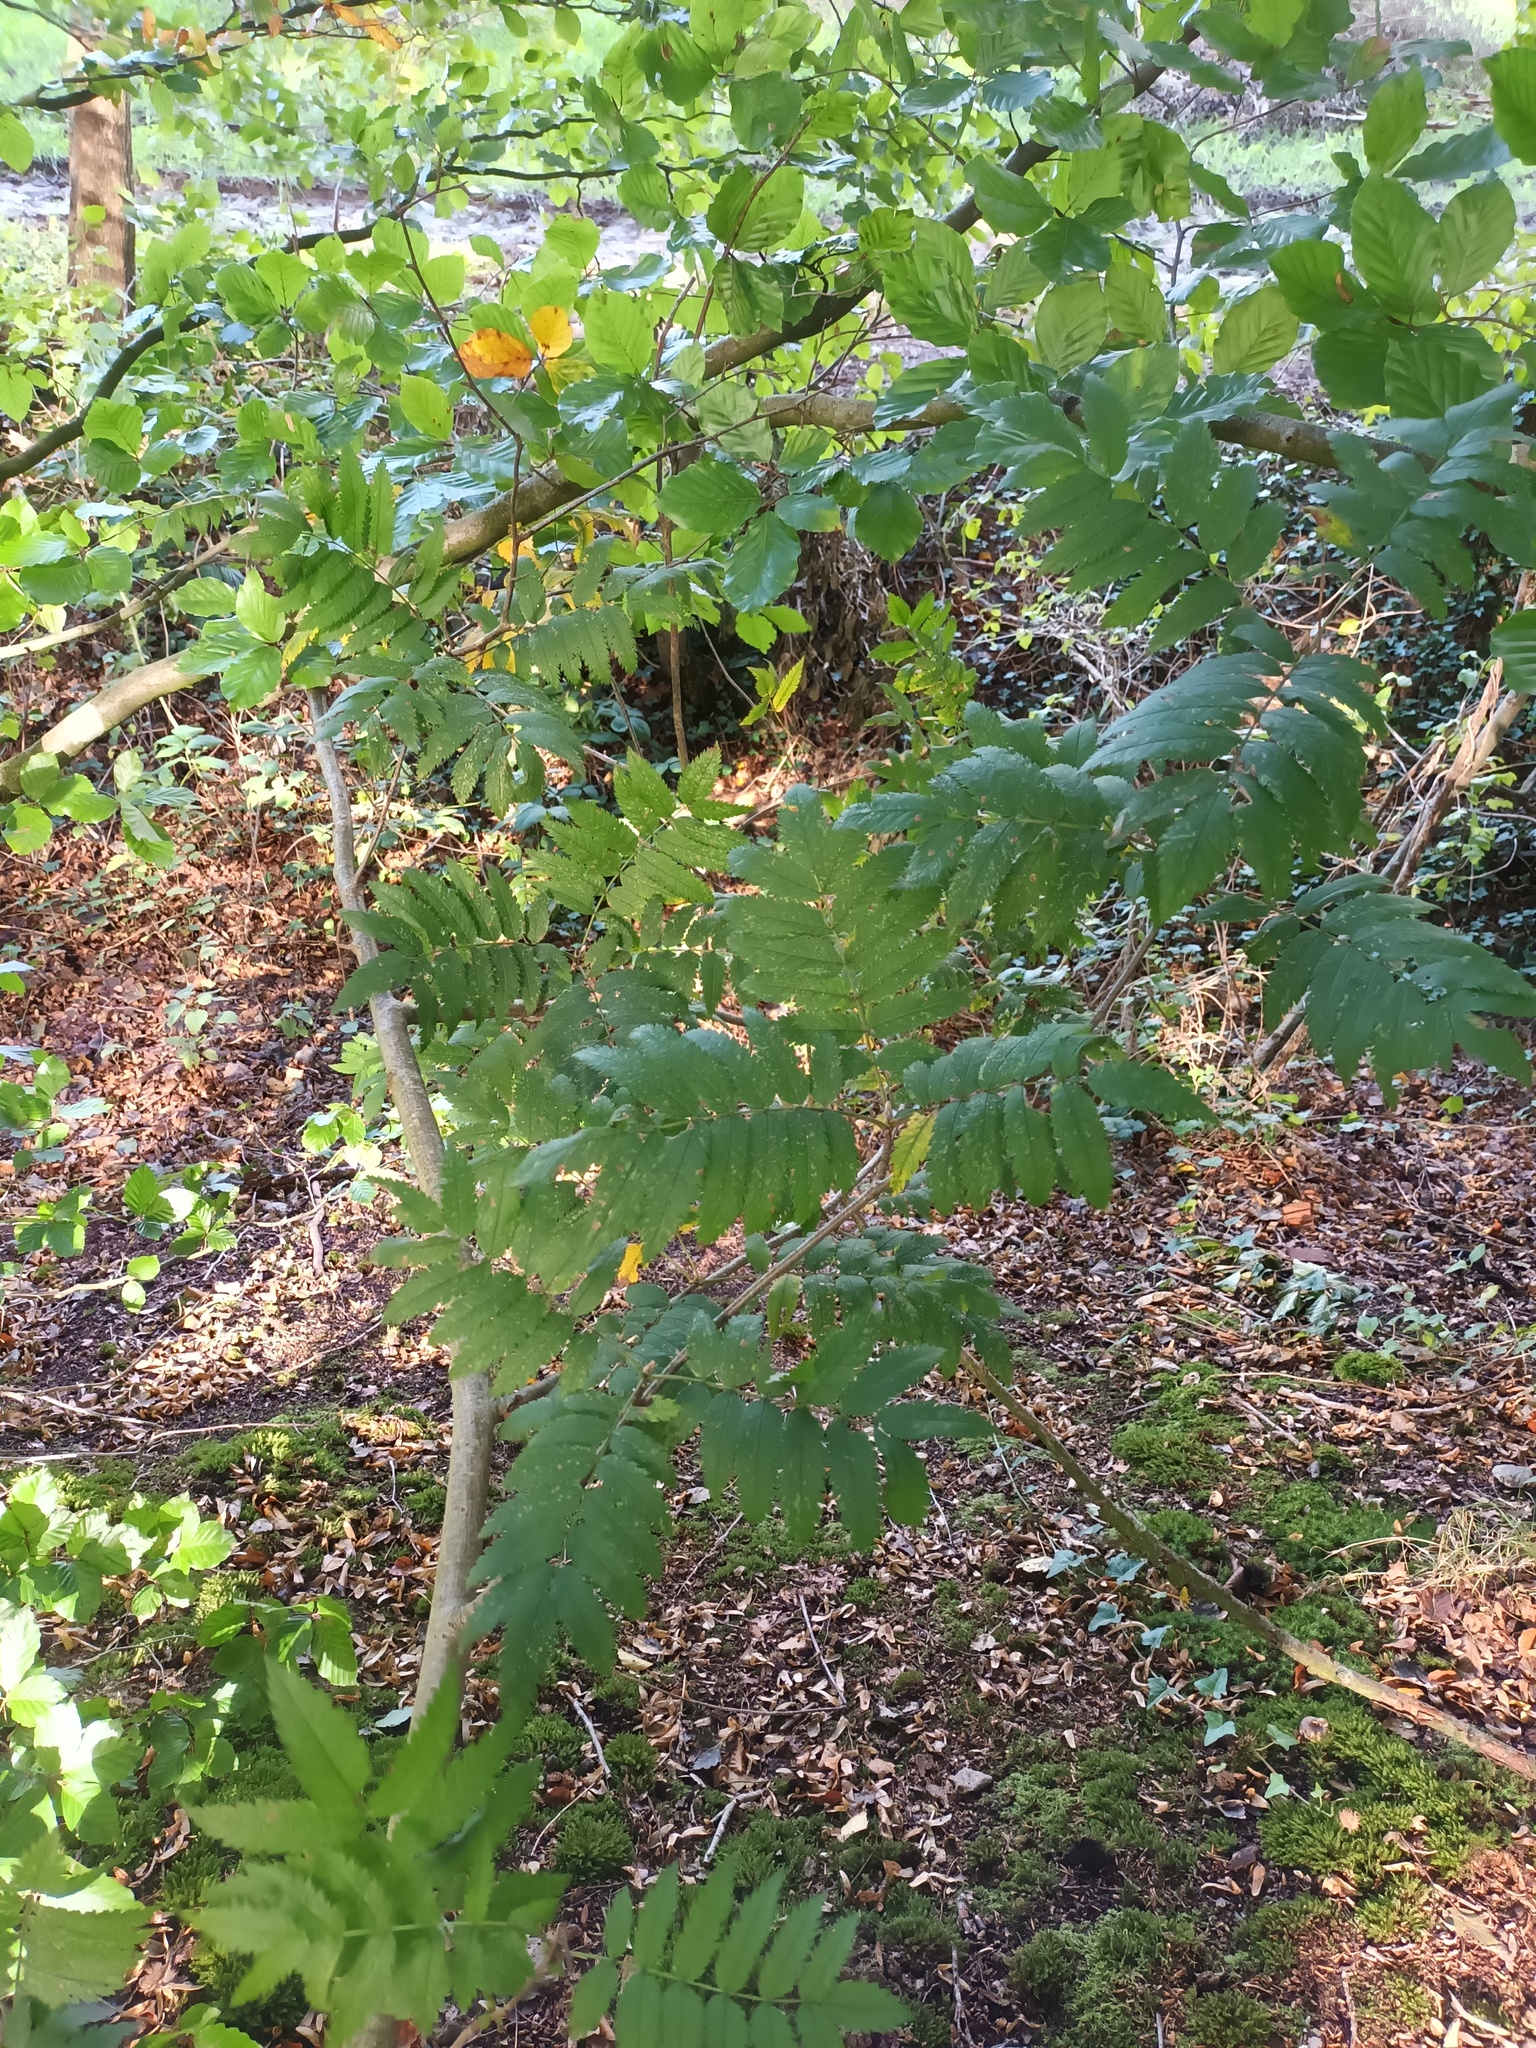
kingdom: Plantae
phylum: Tracheophyta
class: Magnoliopsida
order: Rosales
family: Rosaceae
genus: Sorbus
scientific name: Sorbus aucuparia
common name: Rowan
